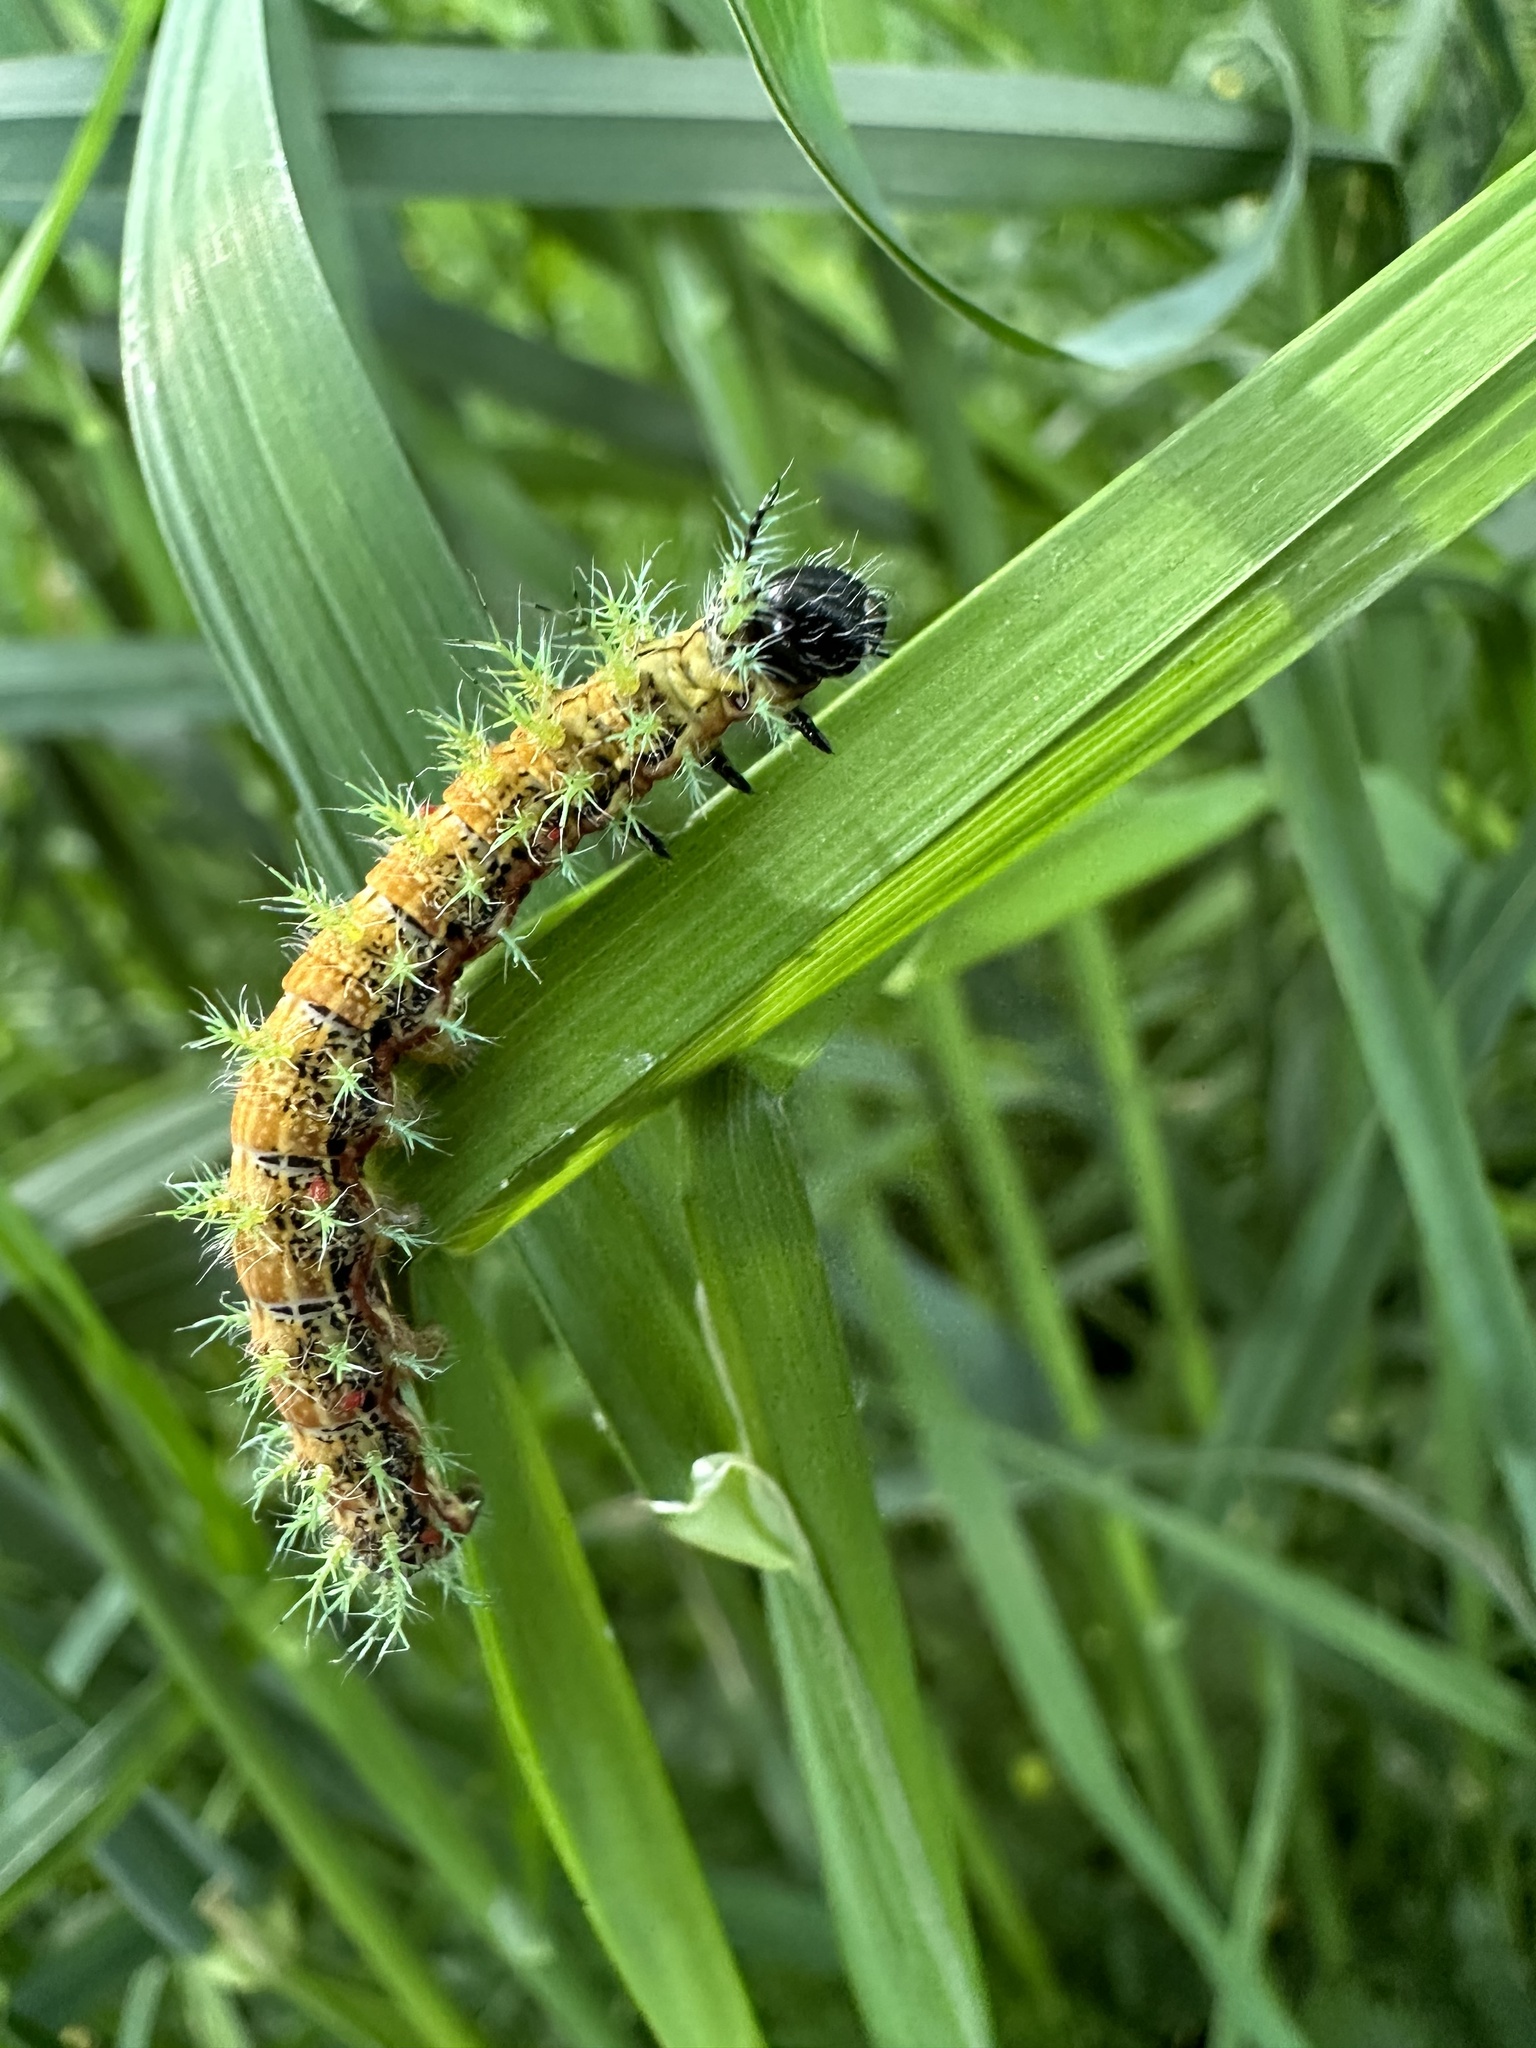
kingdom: Animalia
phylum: Arthropoda
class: Insecta
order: Lepidoptera
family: Saturniidae
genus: Ormiscodes
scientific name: Ormiscodes amphinome
